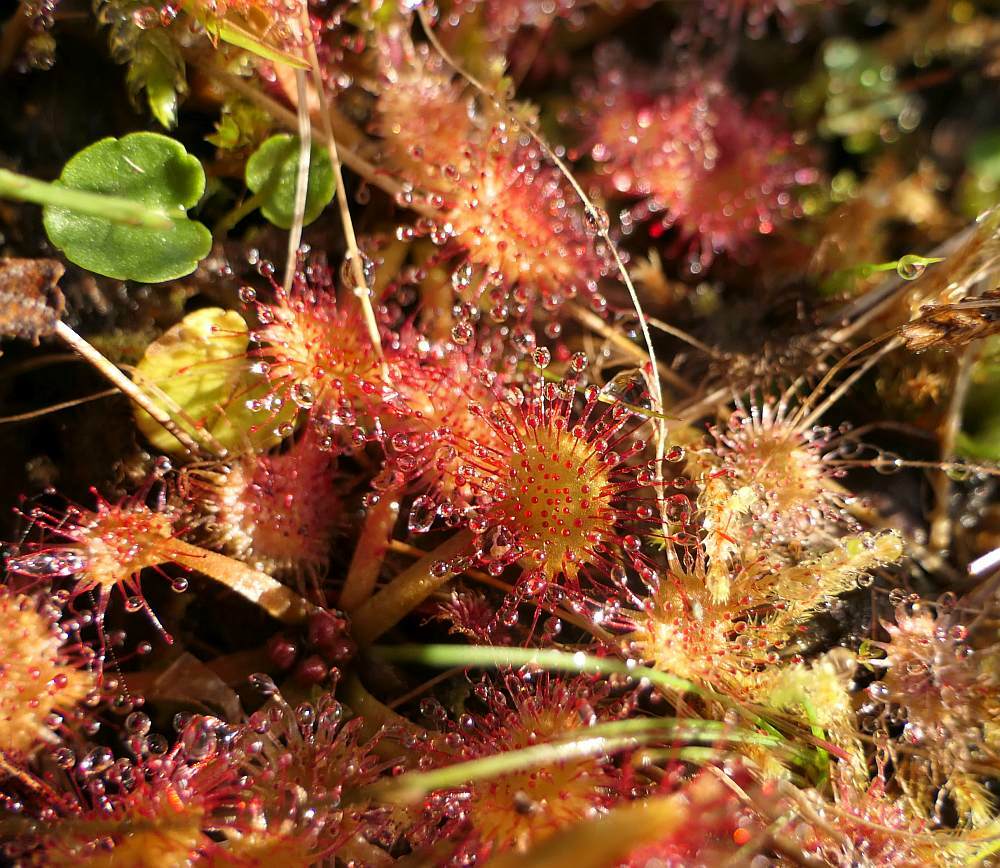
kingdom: Plantae
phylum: Tracheophyta
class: Magnoliopsida
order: Caryophyllales
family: Droseraceae
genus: Drosera
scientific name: Drosera rotundifolia
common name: Round-leaved sundew
